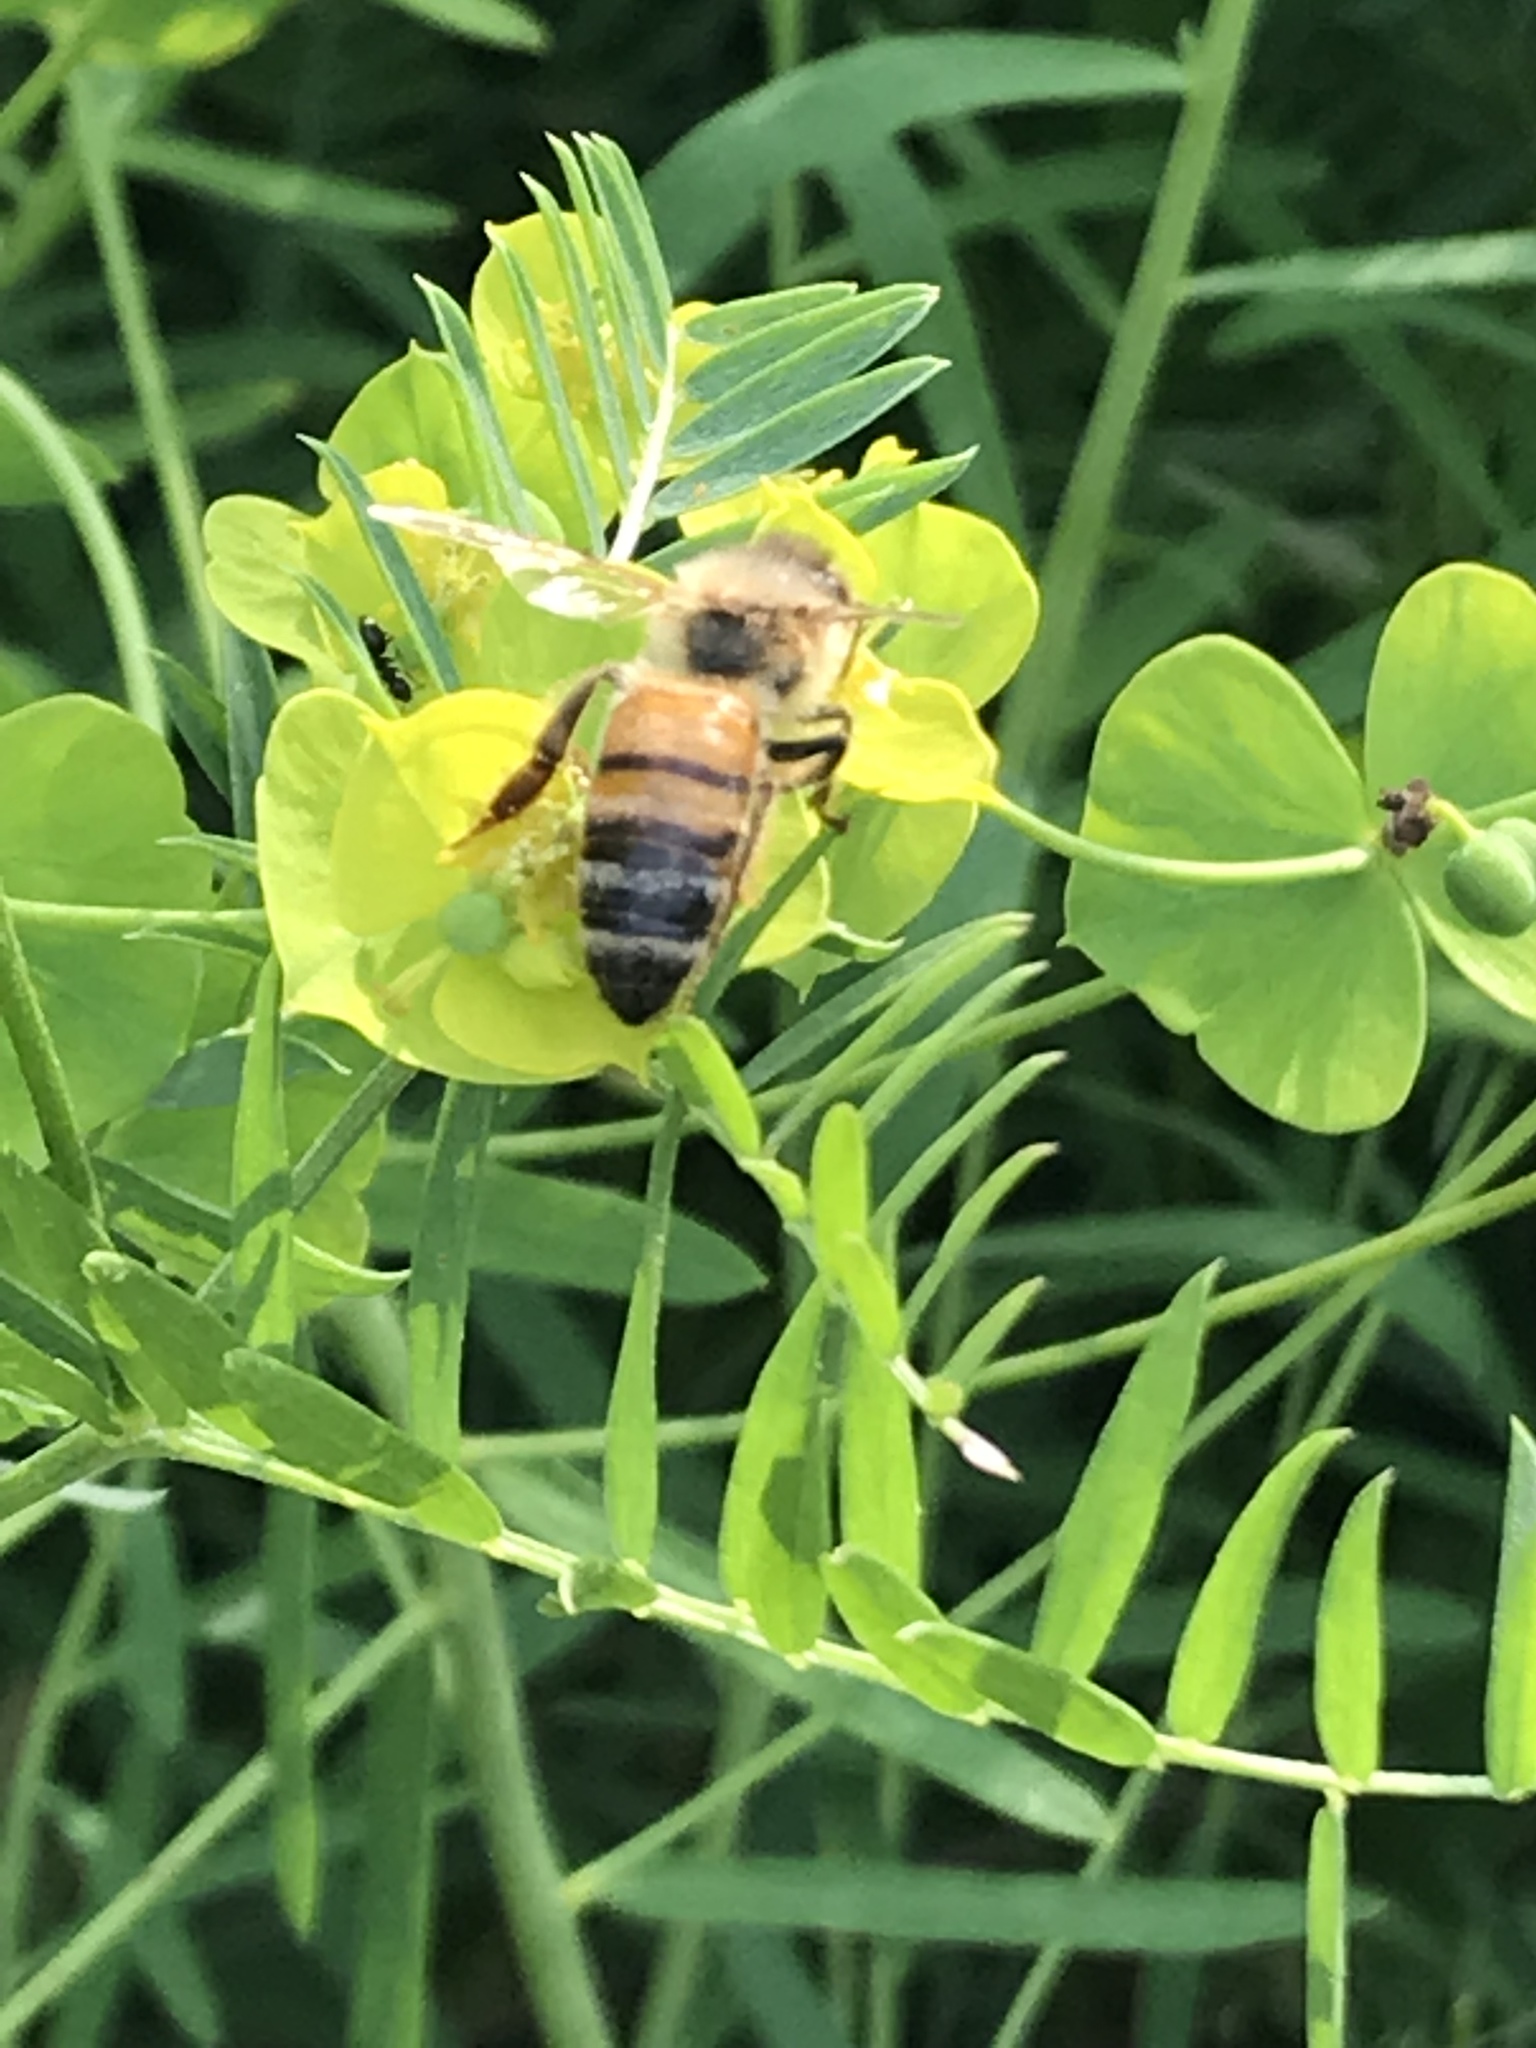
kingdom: Animalia
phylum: Arthropoda
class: Insecta
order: Hymenoptera
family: Apidae
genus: Apis
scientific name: Apis mellifera
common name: Honey bee
